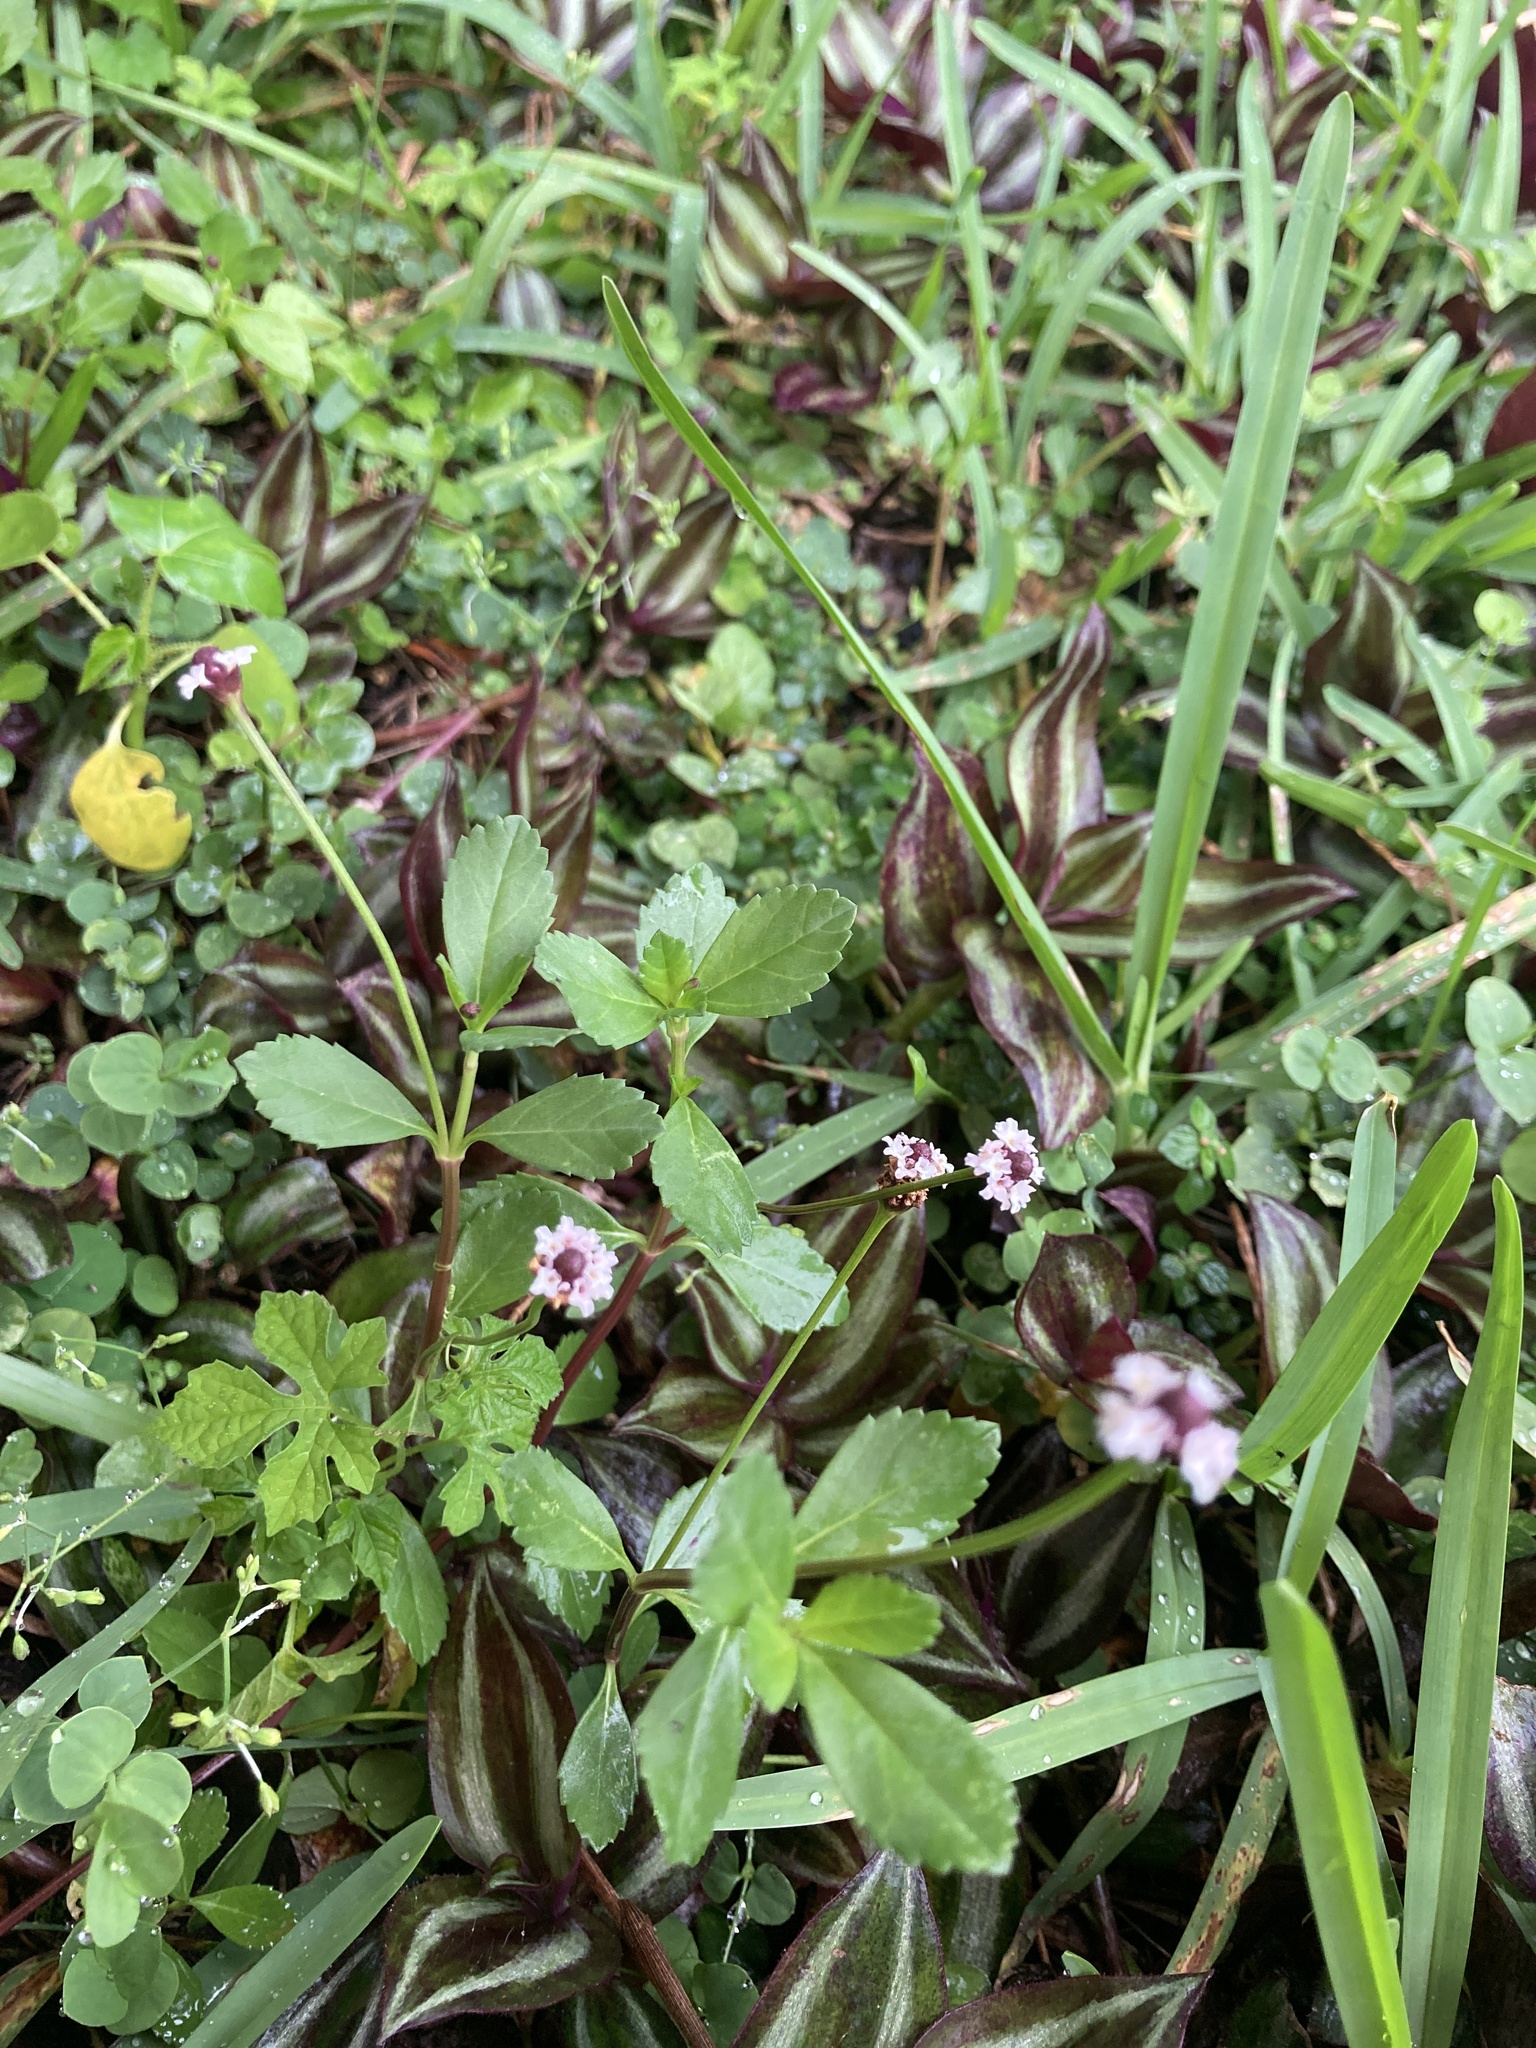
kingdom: Plantae
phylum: Tracheophyta
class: Magnoliopsida
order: Lamiales
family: Verbenaceae
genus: Phyla
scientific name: Phyla nodiflora
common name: Frogfruit
